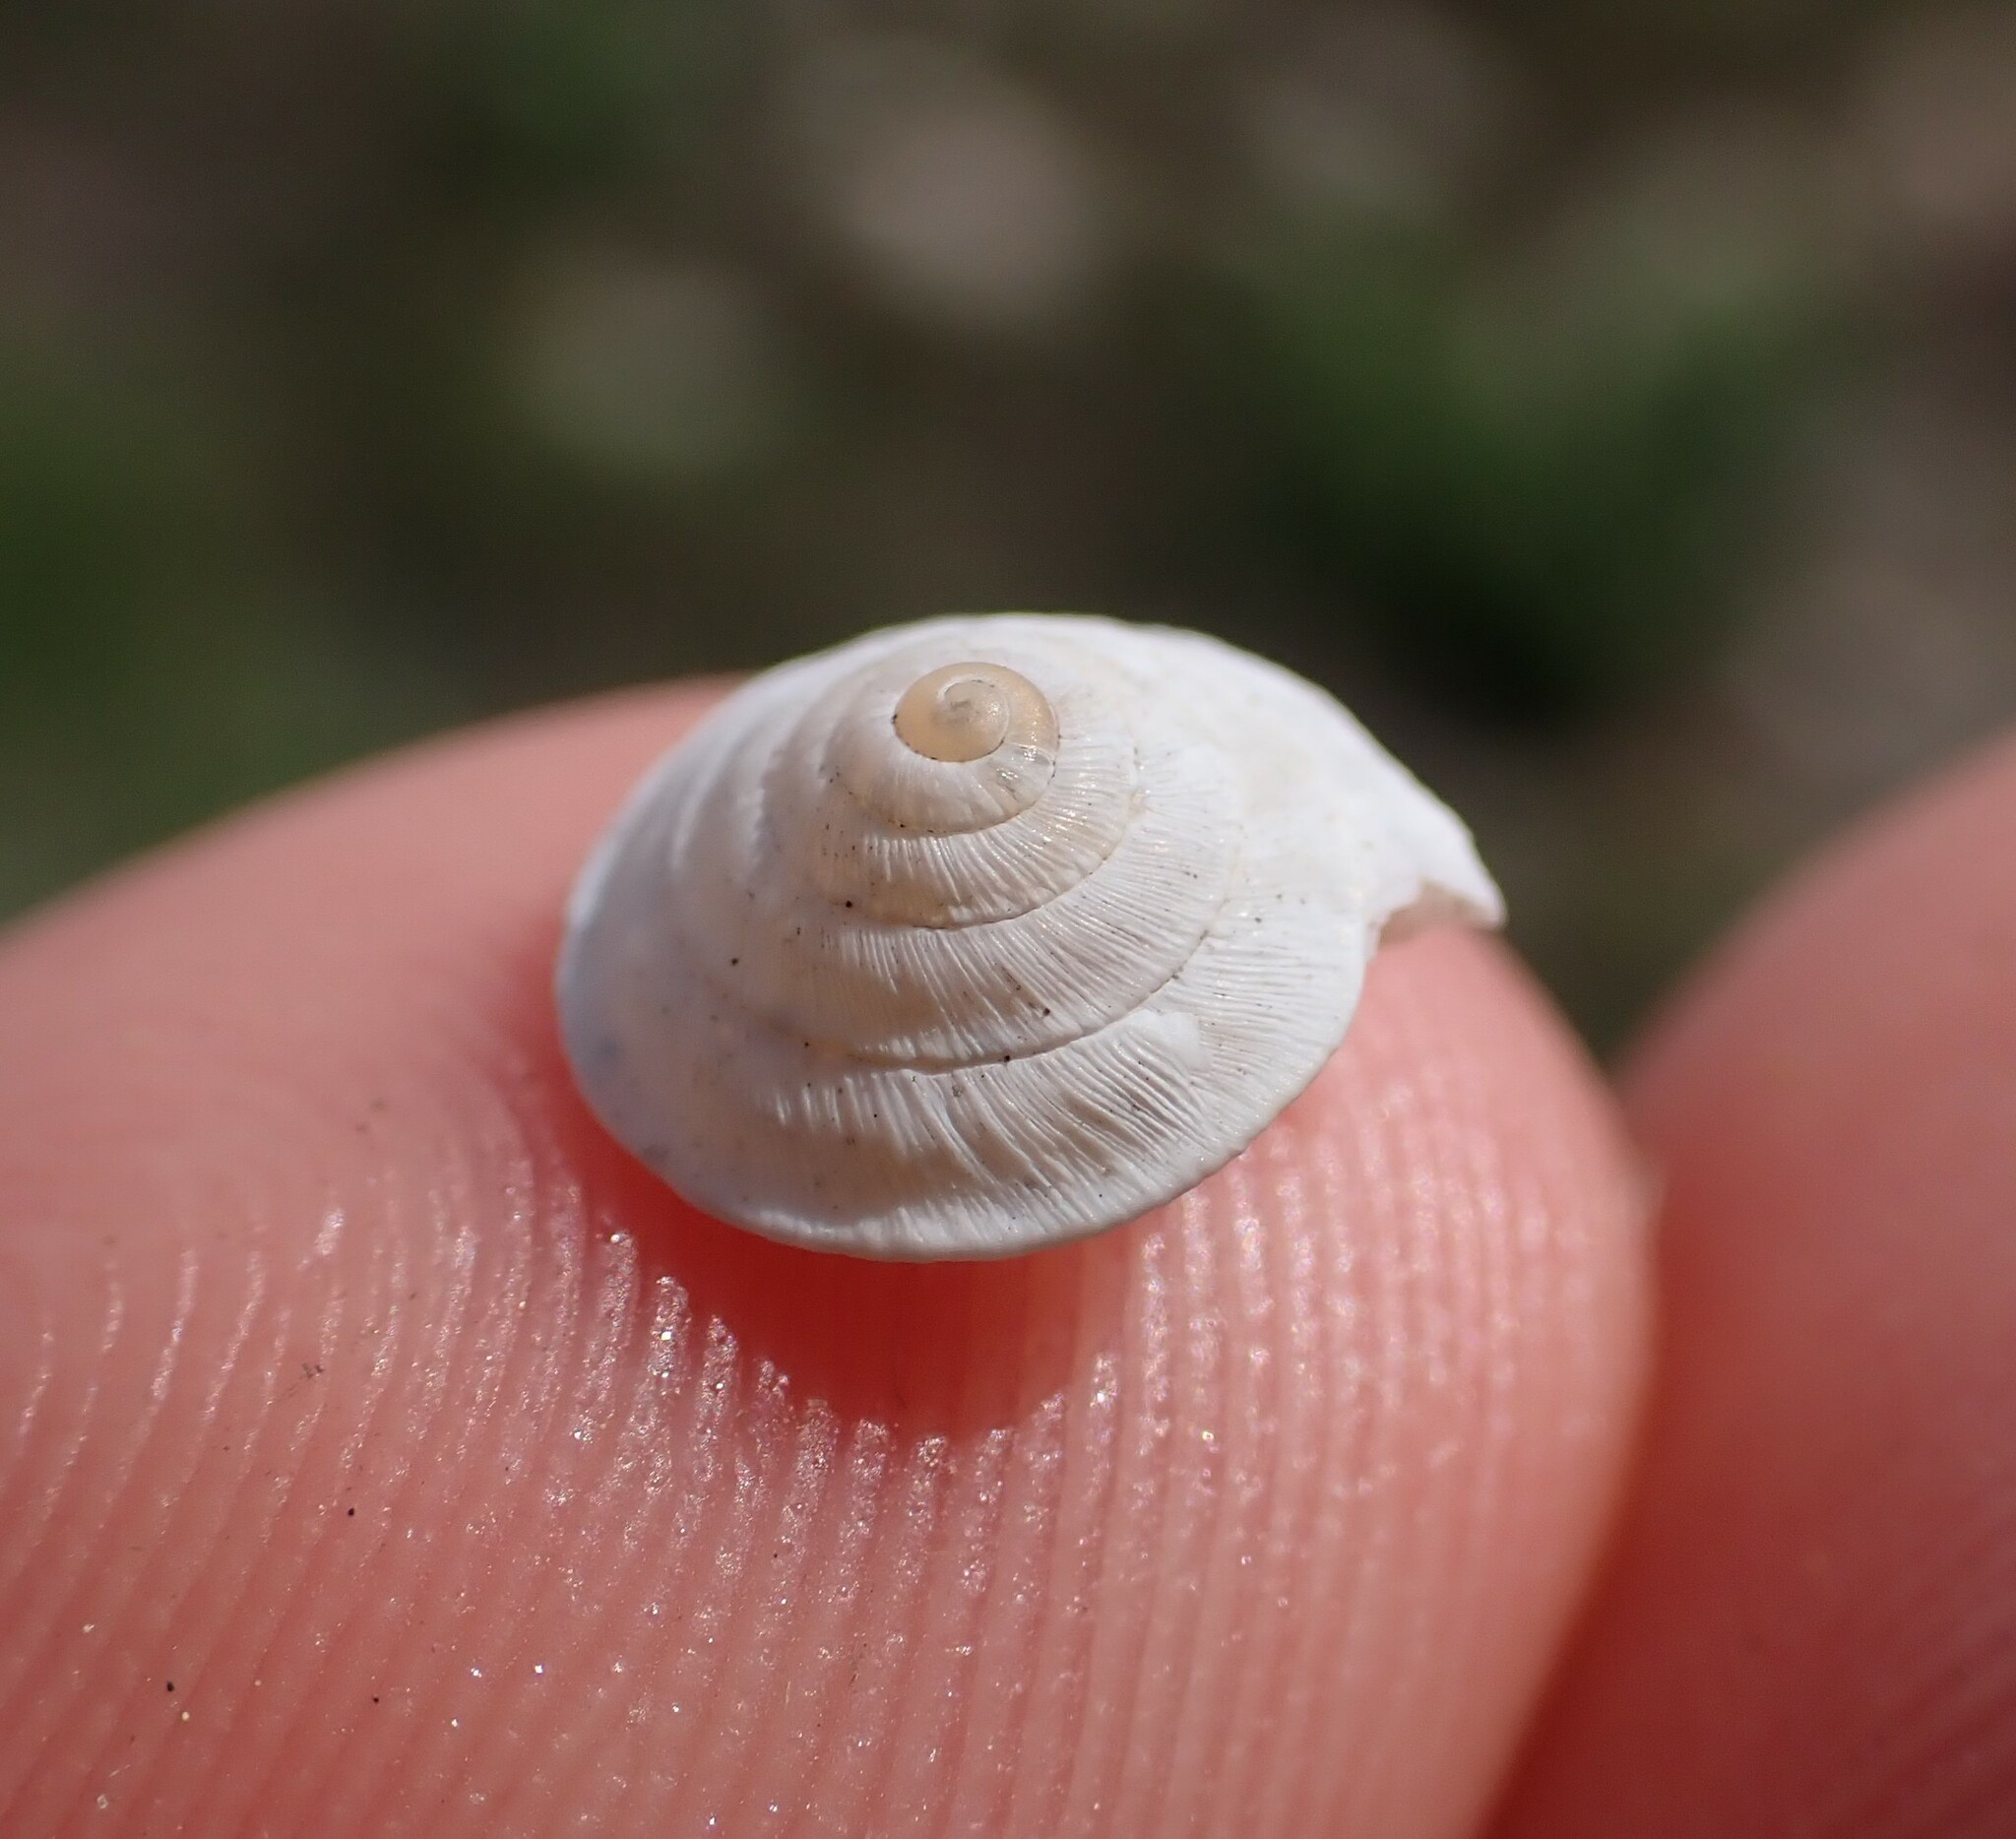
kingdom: Animalia
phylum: Mollusca
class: Gastropoda
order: Stylommatophora
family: Geomitridae
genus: Trochoidea
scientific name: Trochoidea elegans
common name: Elegant helicellid
